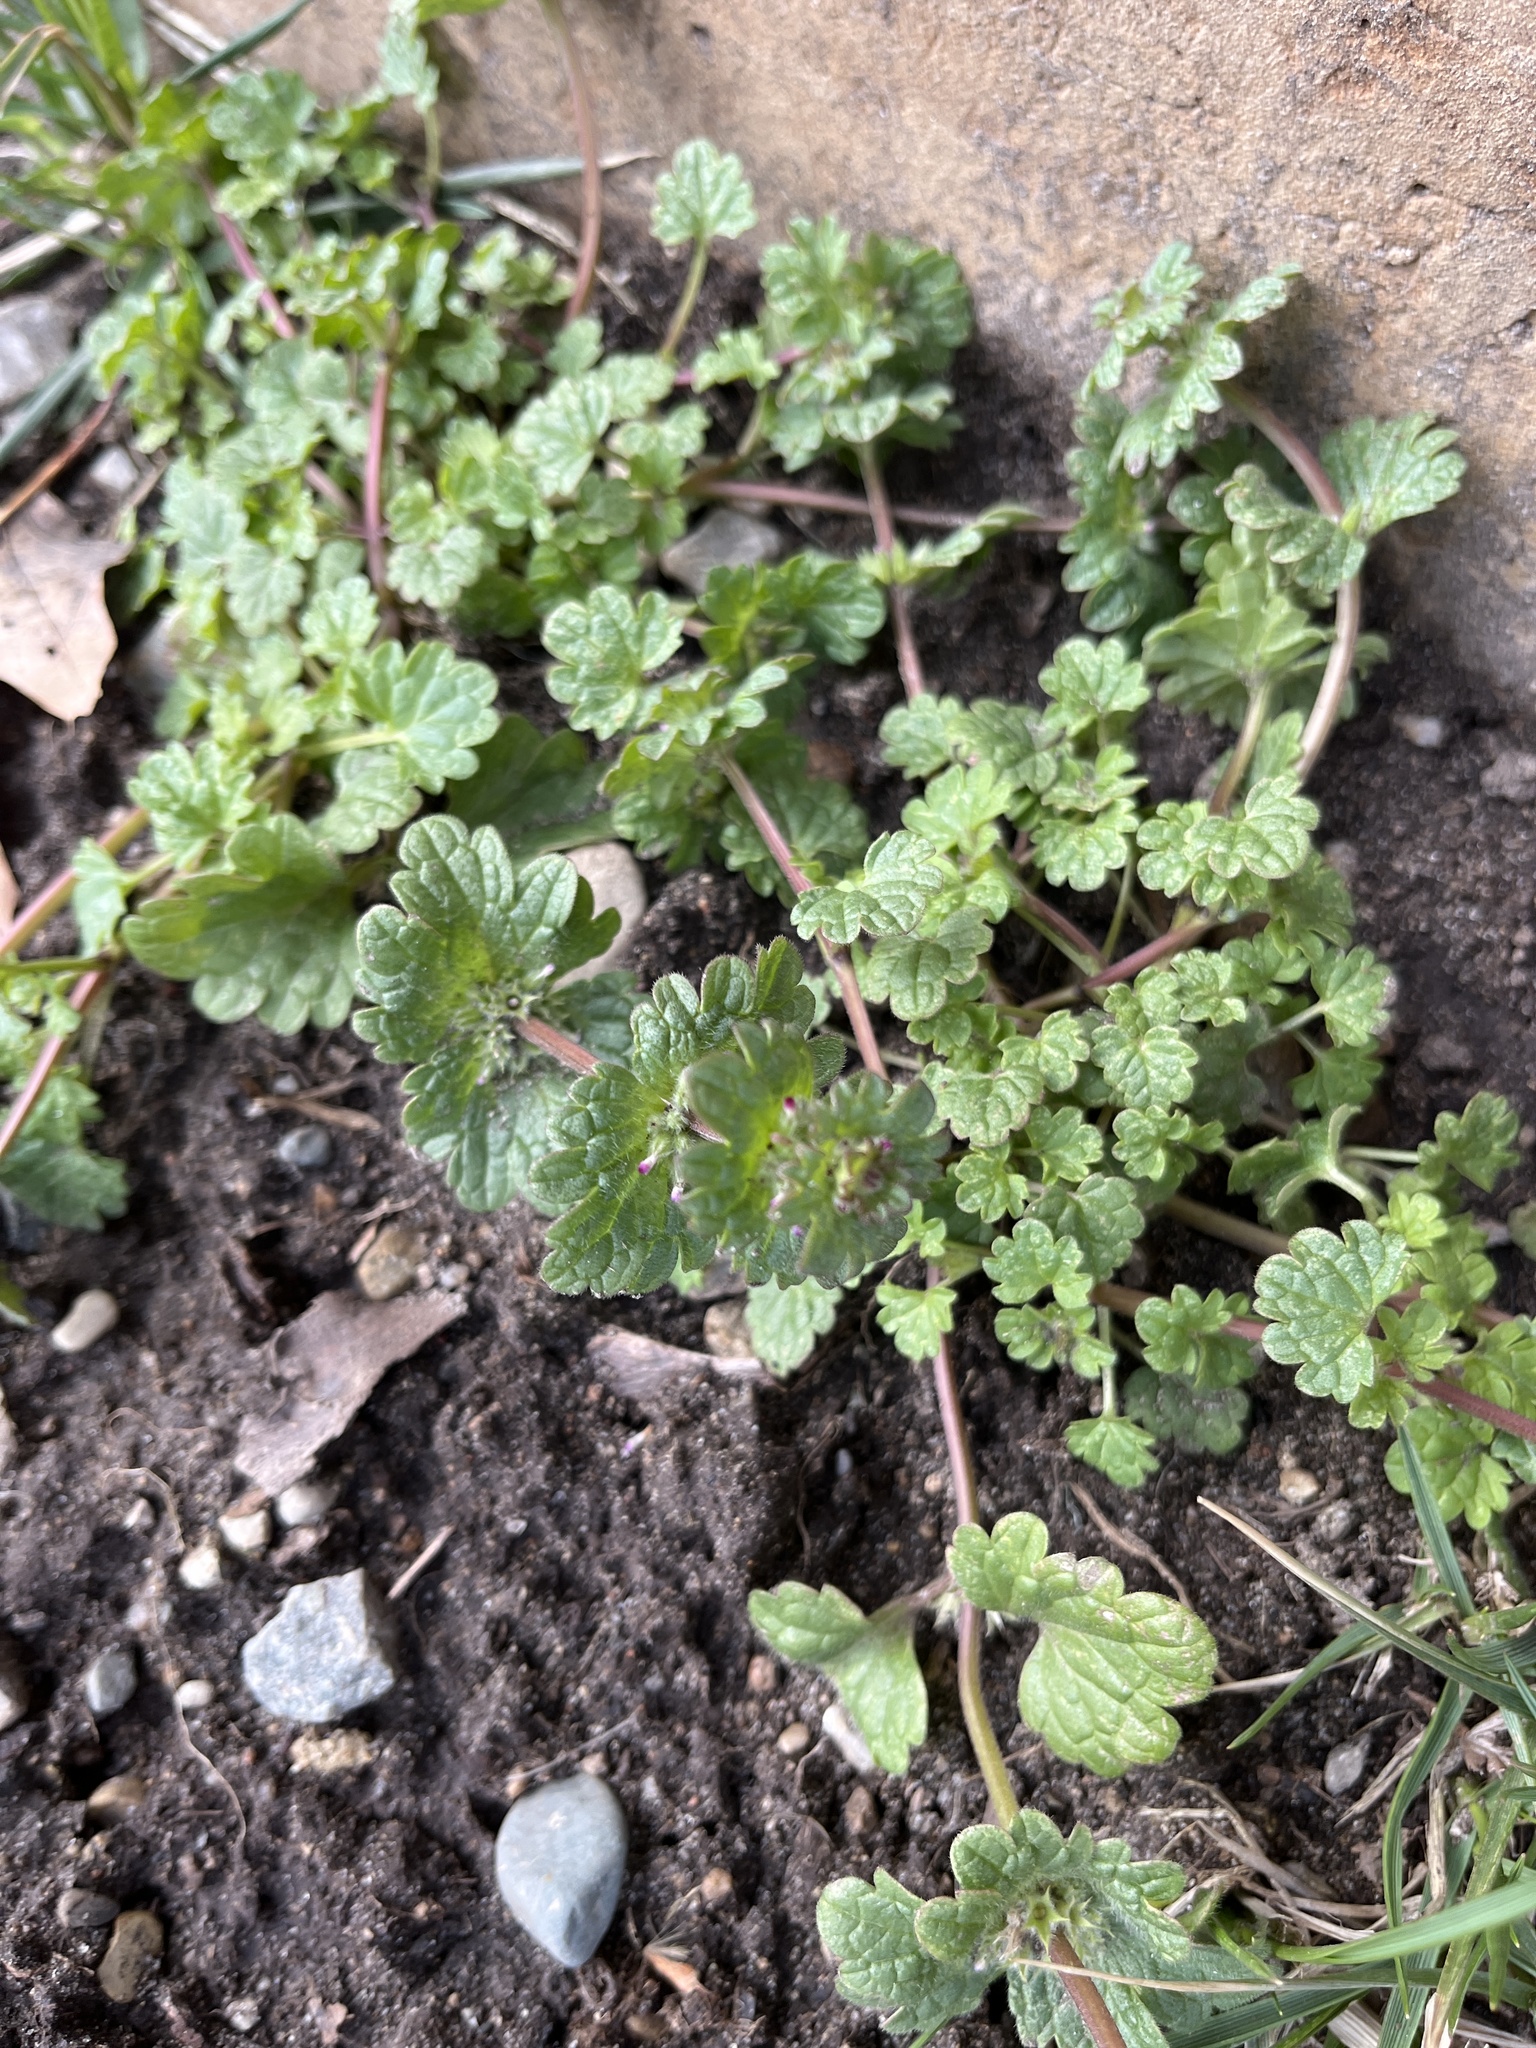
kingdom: Plantae
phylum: Tracheophyta
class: Magnoliopsida
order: Lamiales
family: Lamiaceae
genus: Lamium
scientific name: Lamium amplexicaule
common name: Henbit dead-nettle
